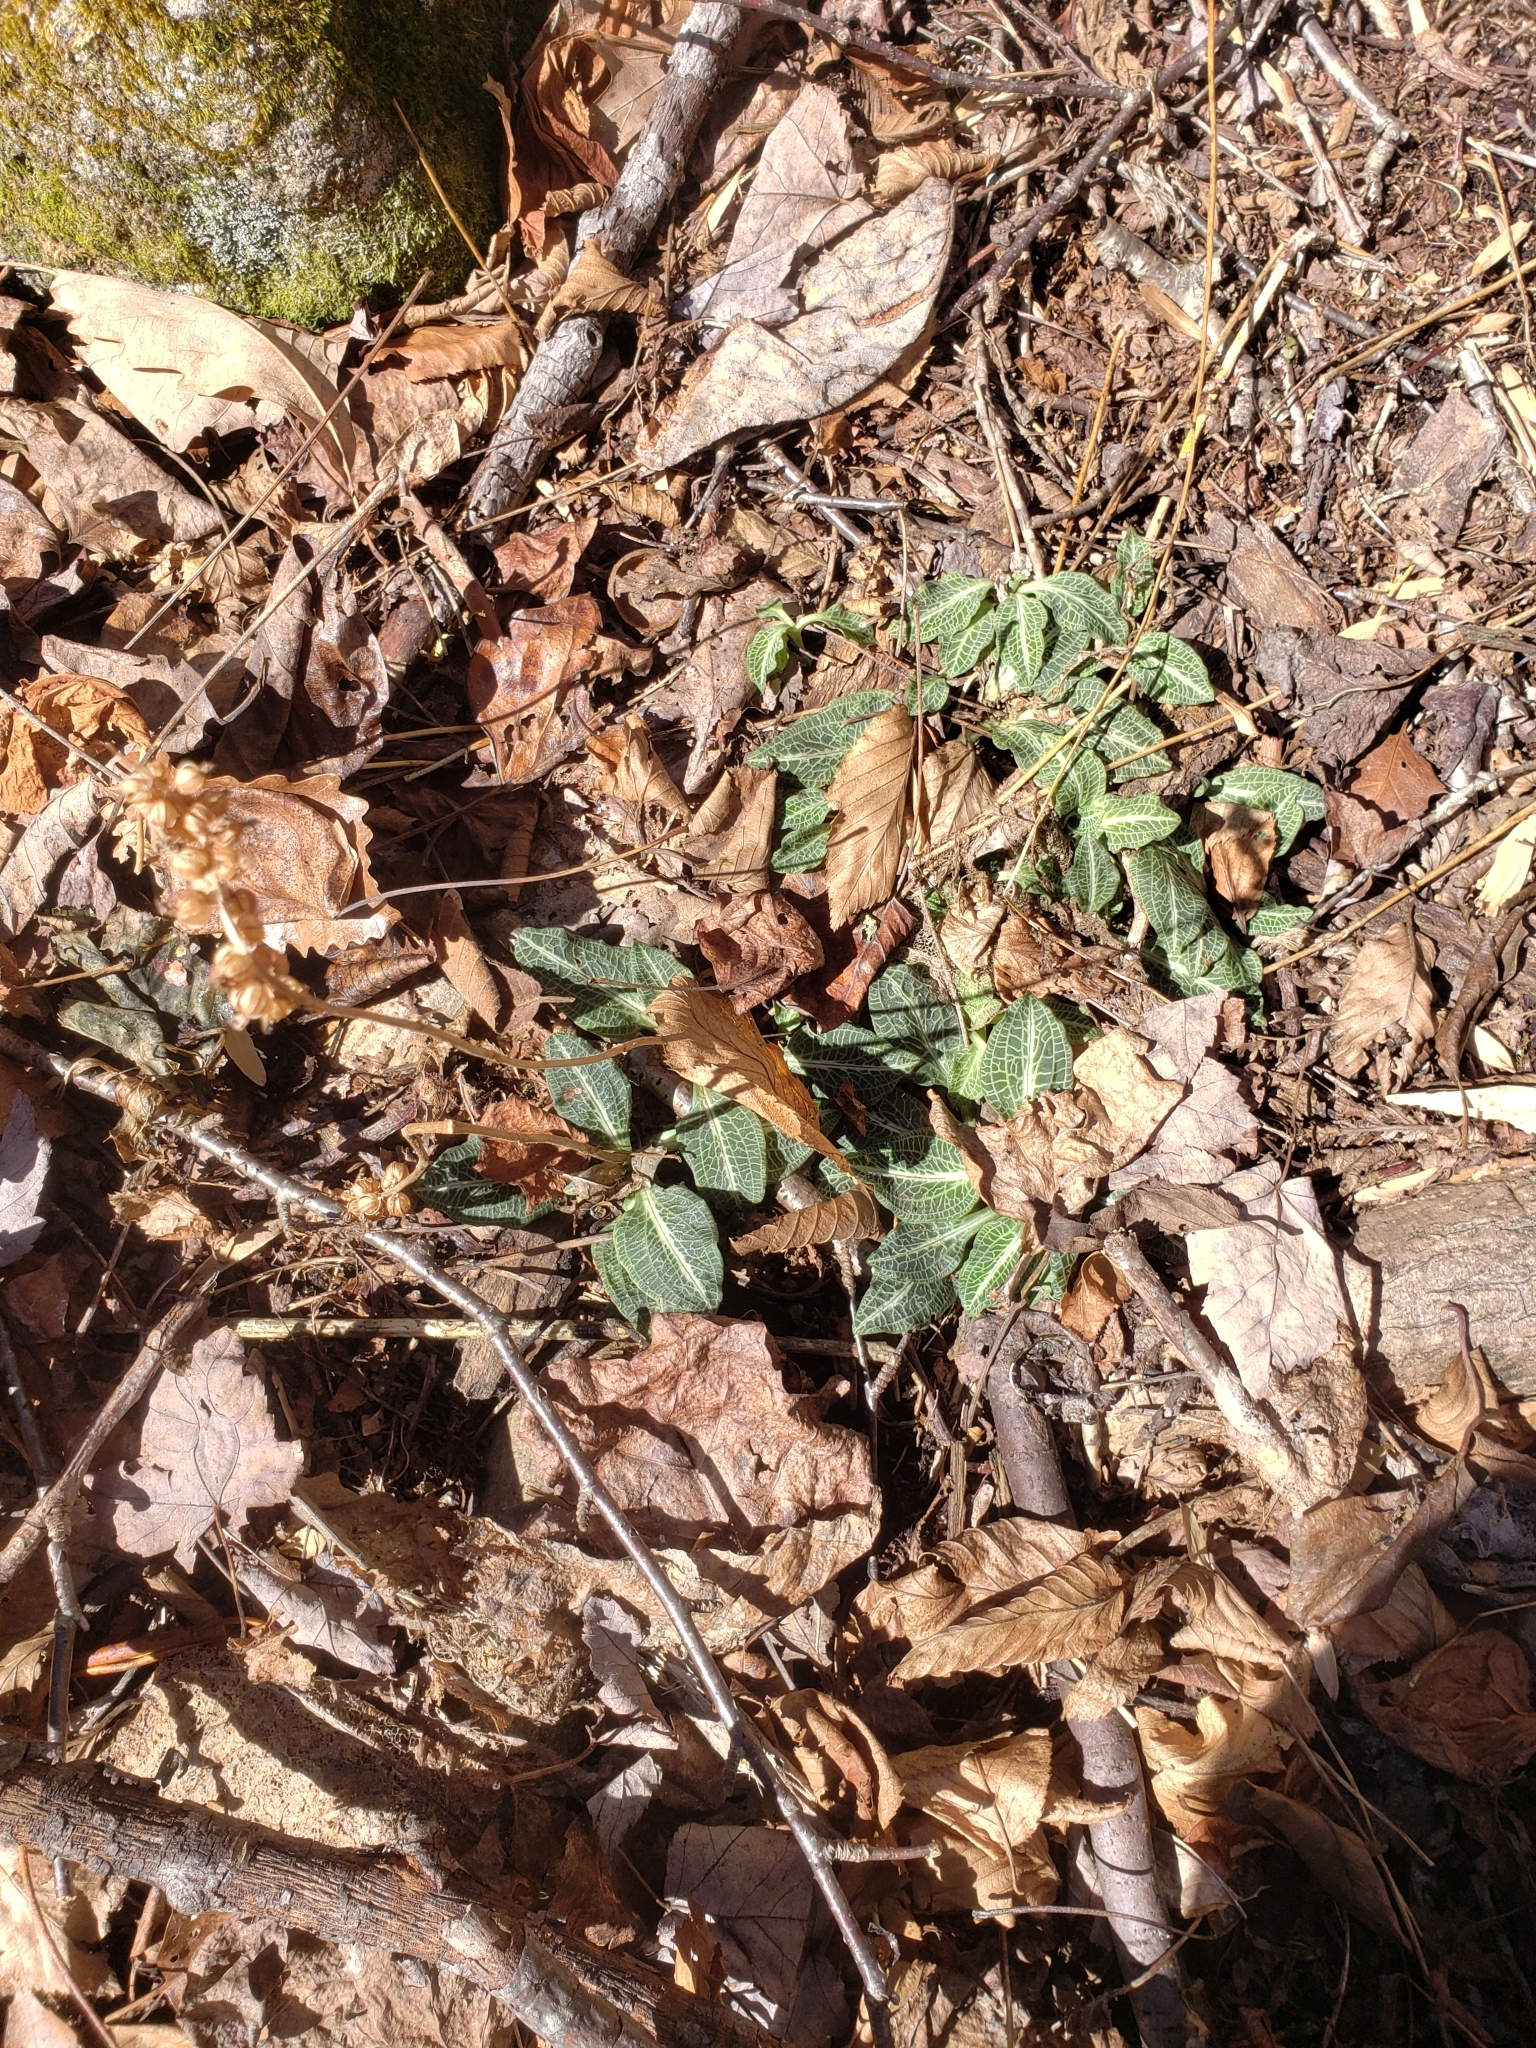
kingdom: Plantae
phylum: Tracheophyta
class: Liliopsida
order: Asparagales
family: Orchidaceae
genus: Goodyera
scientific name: Goodyera pubescens
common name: Downy rattlesnake-plantain
